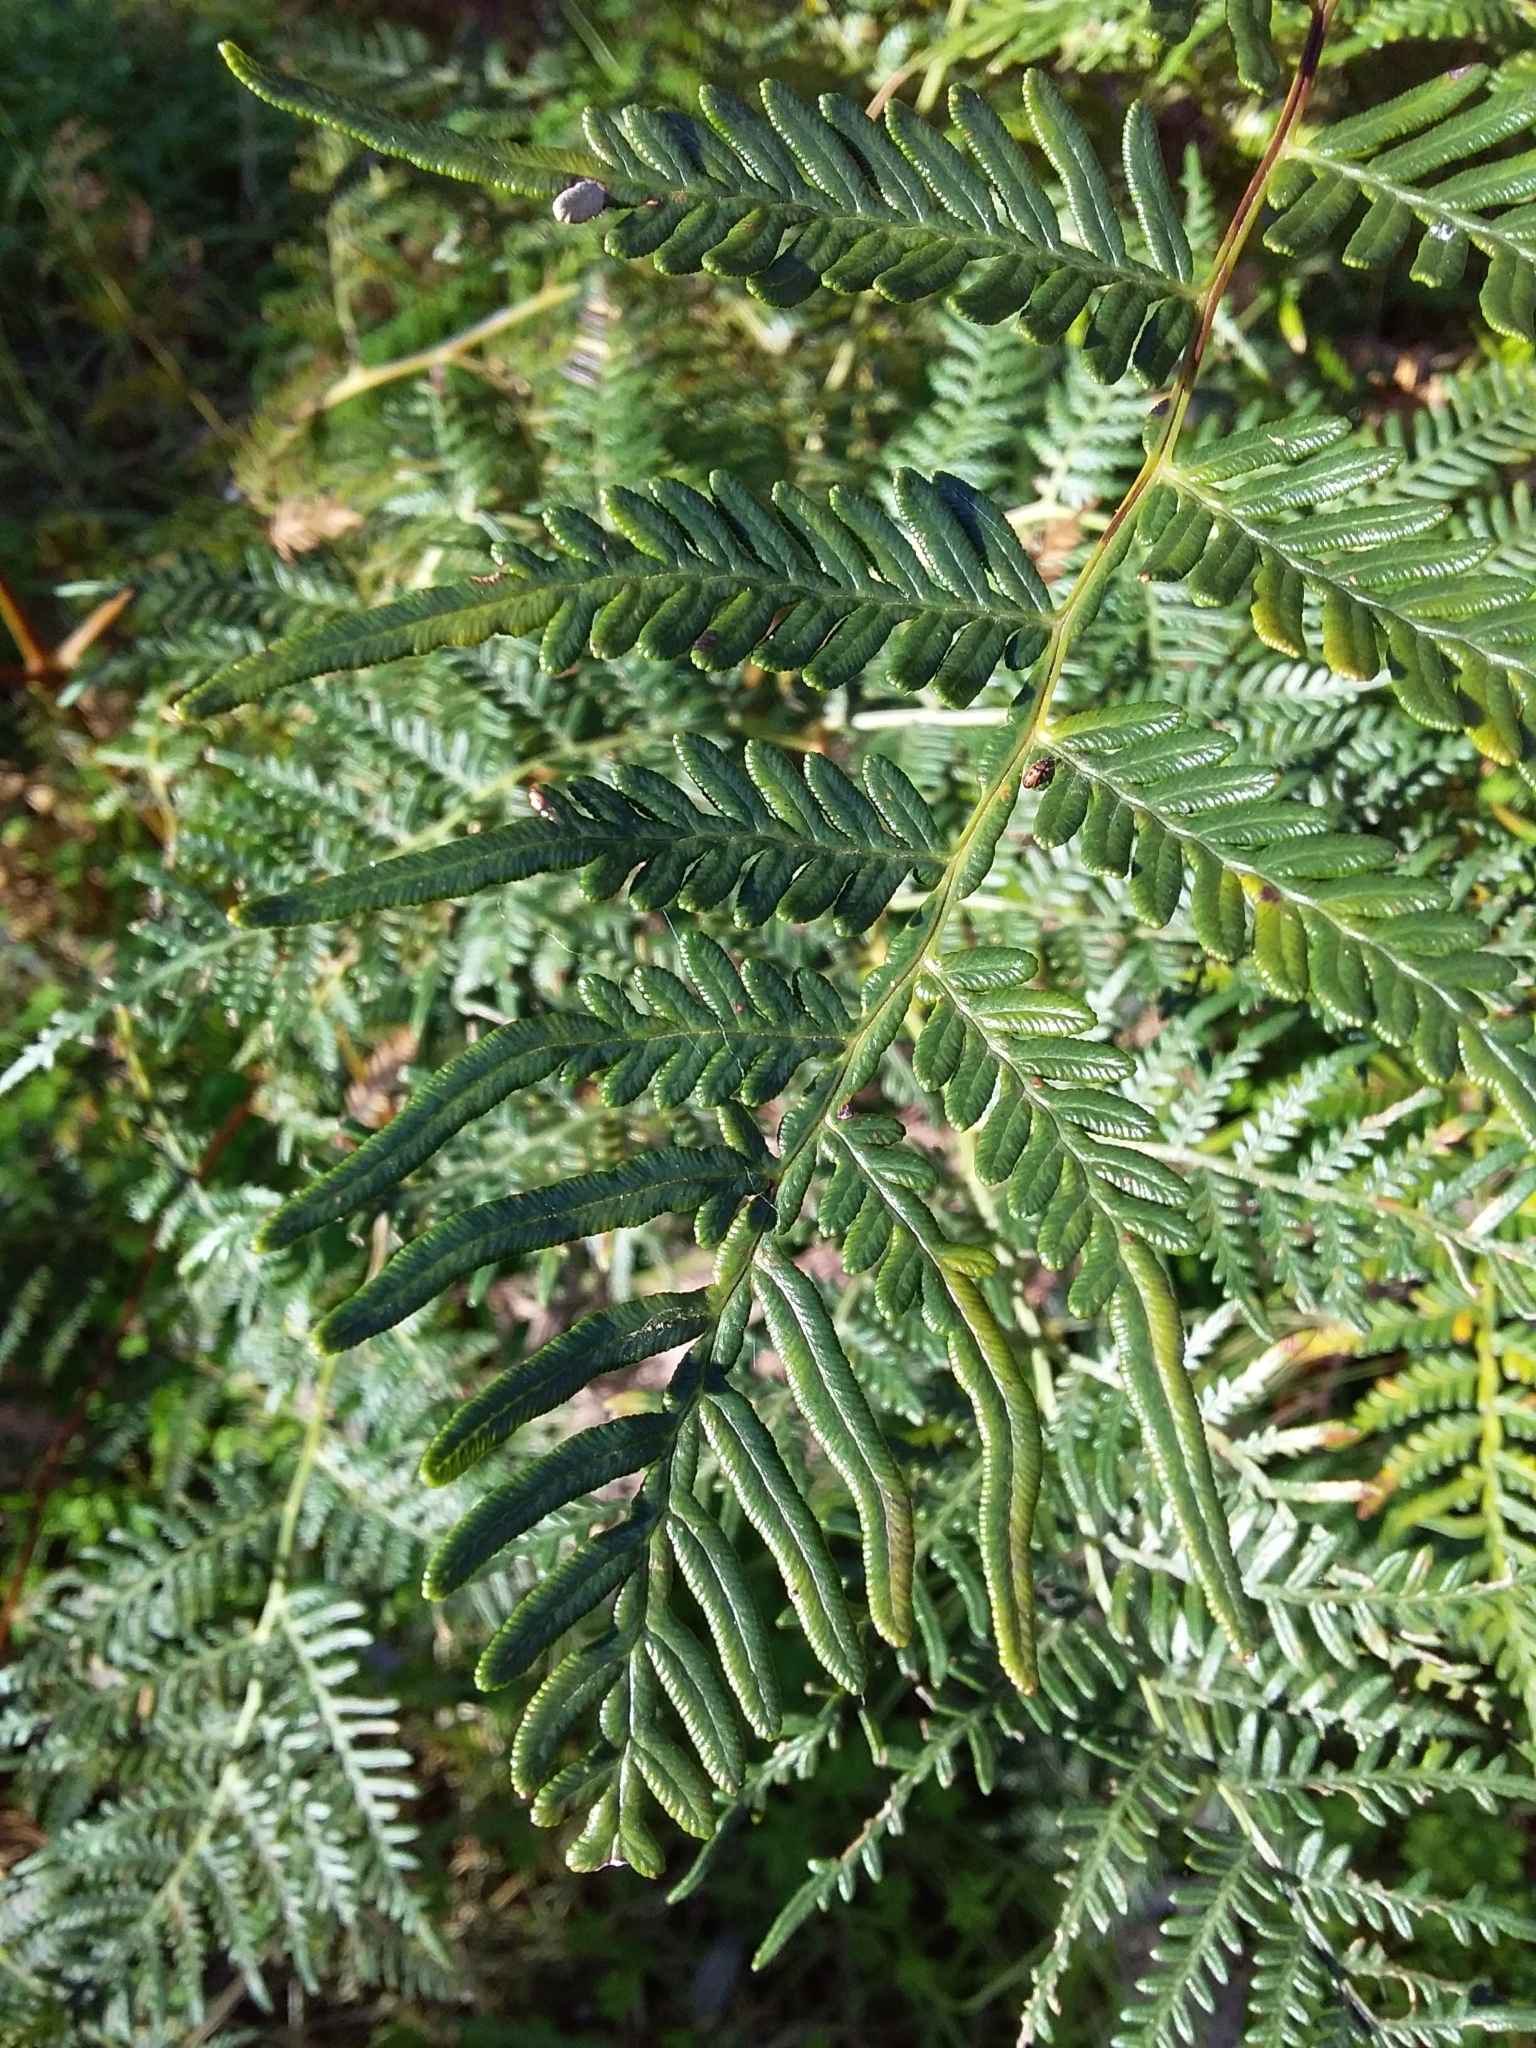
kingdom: Plantae
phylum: Tracheophyta
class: Polypodiopsida
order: Polypodiales
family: Dennstaedtiaceae
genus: Pteridium
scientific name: Pteridium esculentum
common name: Bracken fern
